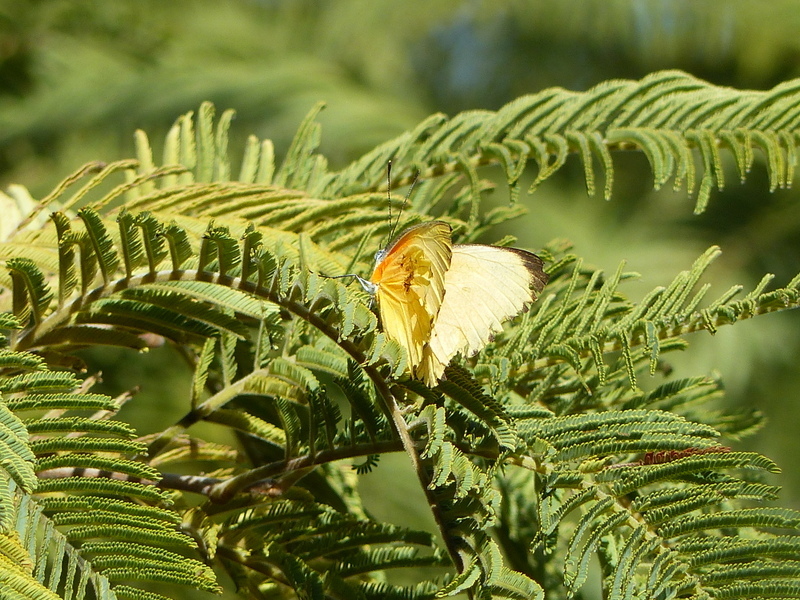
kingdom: Animalia
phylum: Arthropoda
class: Insecta
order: Lepidoptera
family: Pieridae
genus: Mylothris
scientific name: Mylothris agathina
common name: Eastern dotted border
